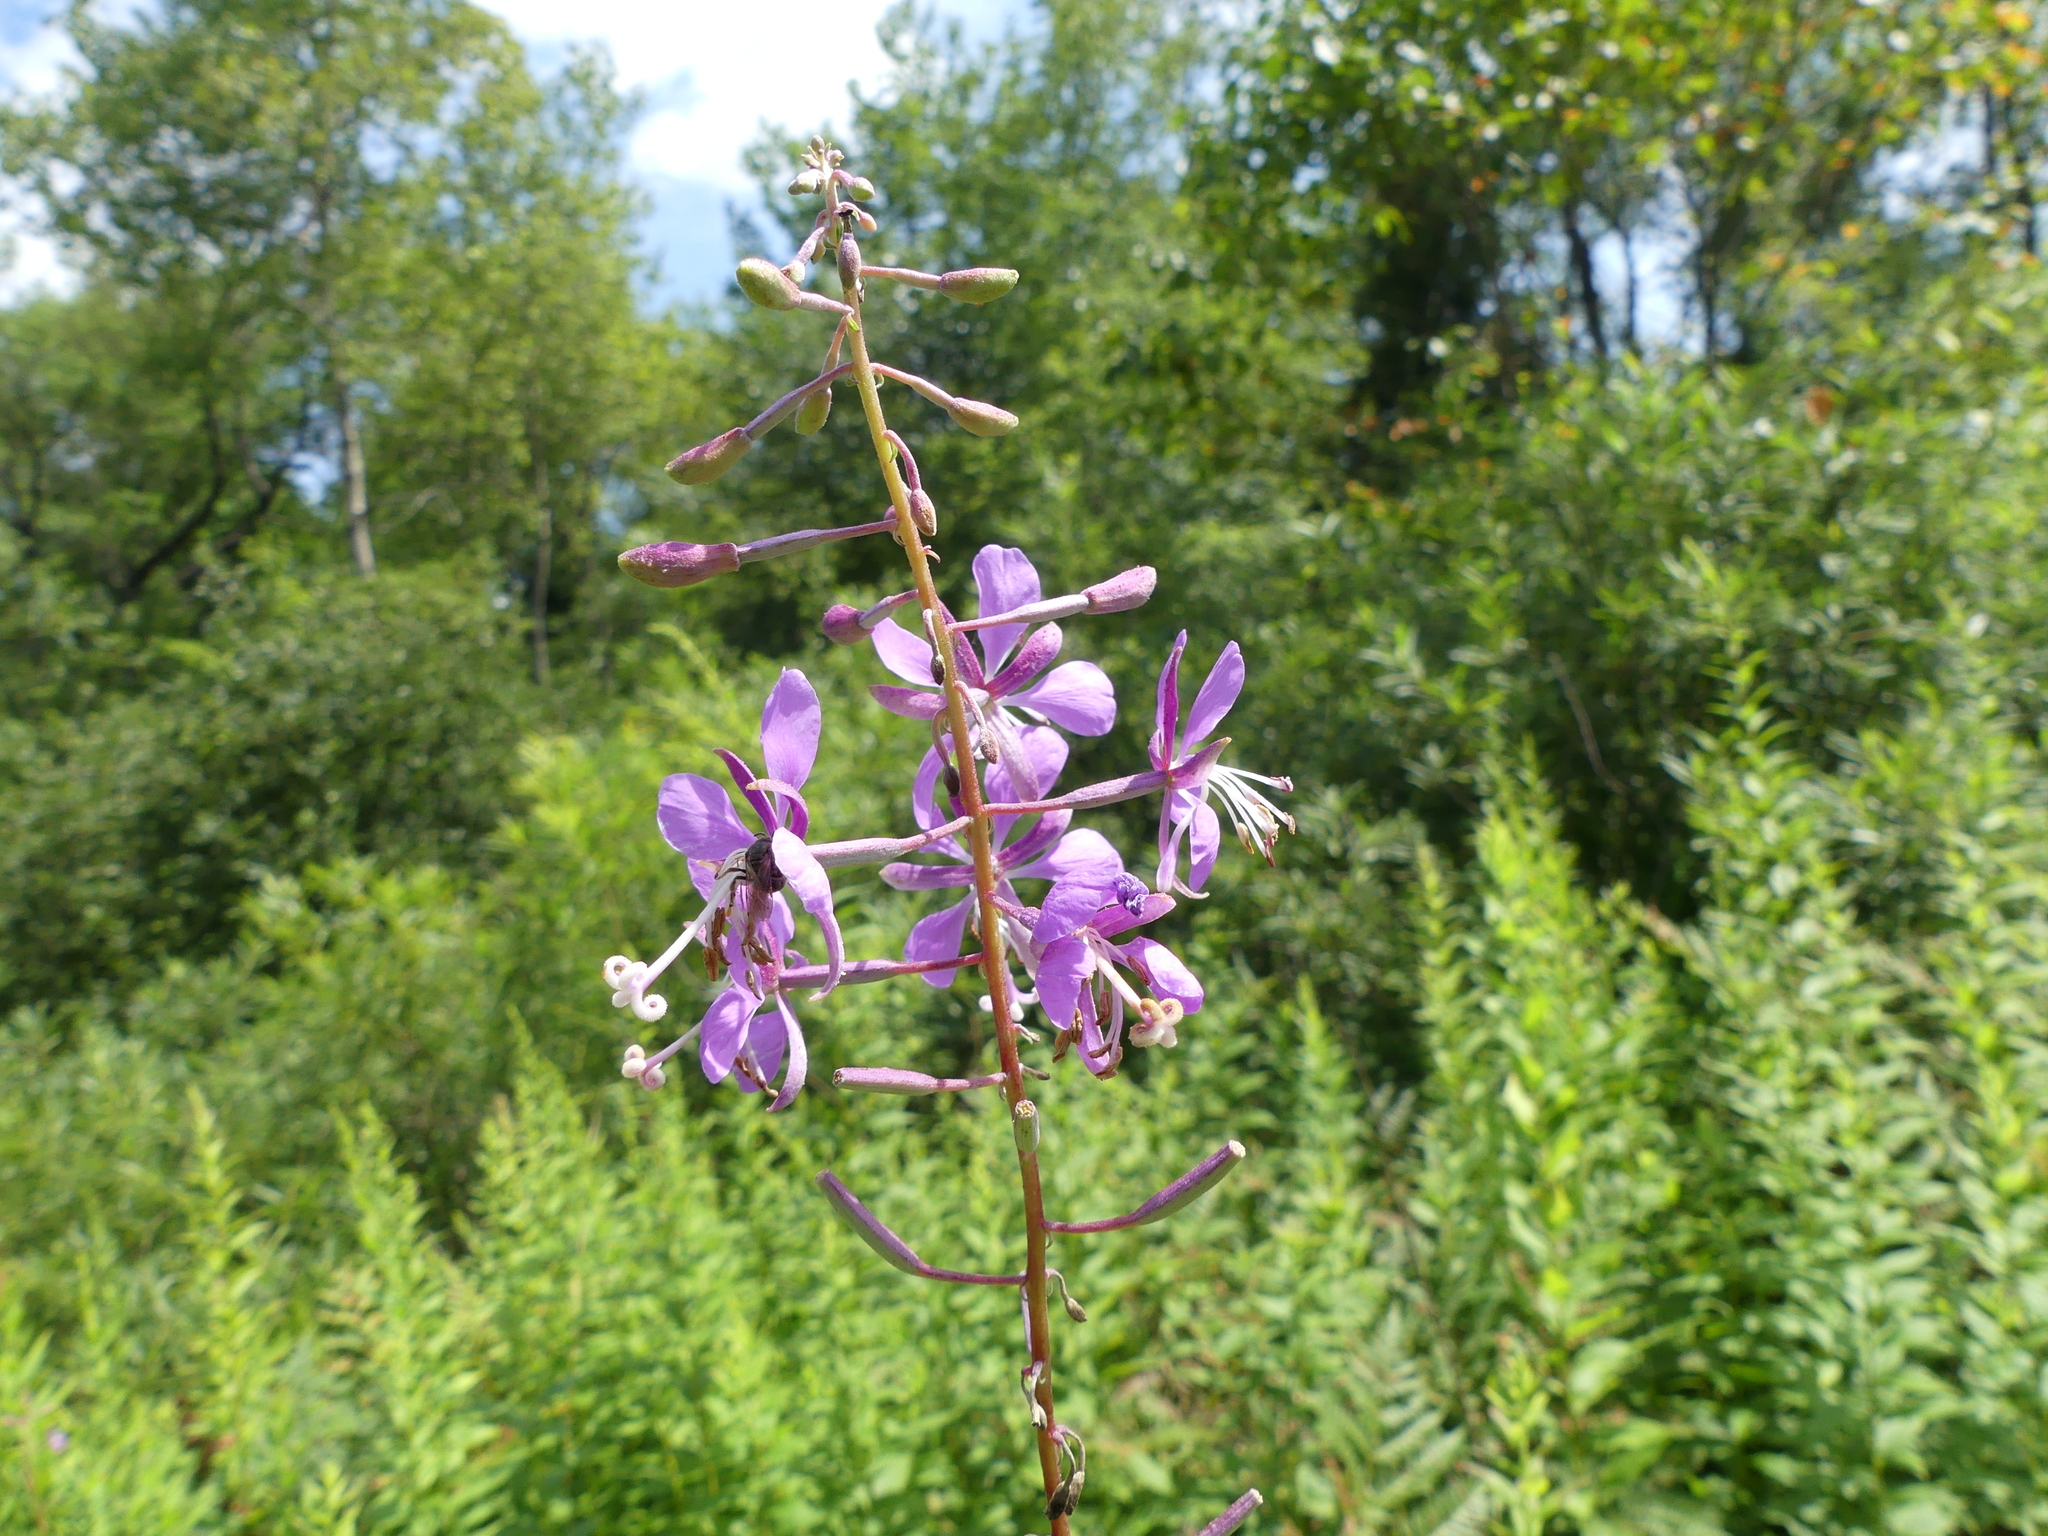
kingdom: Plantae
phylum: Tracheophyta
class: Magnoliopsida
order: Myrtales
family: Onagraceae
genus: Chamaenerion
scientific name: Chamaenerion angustifolium
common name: Fireweed
